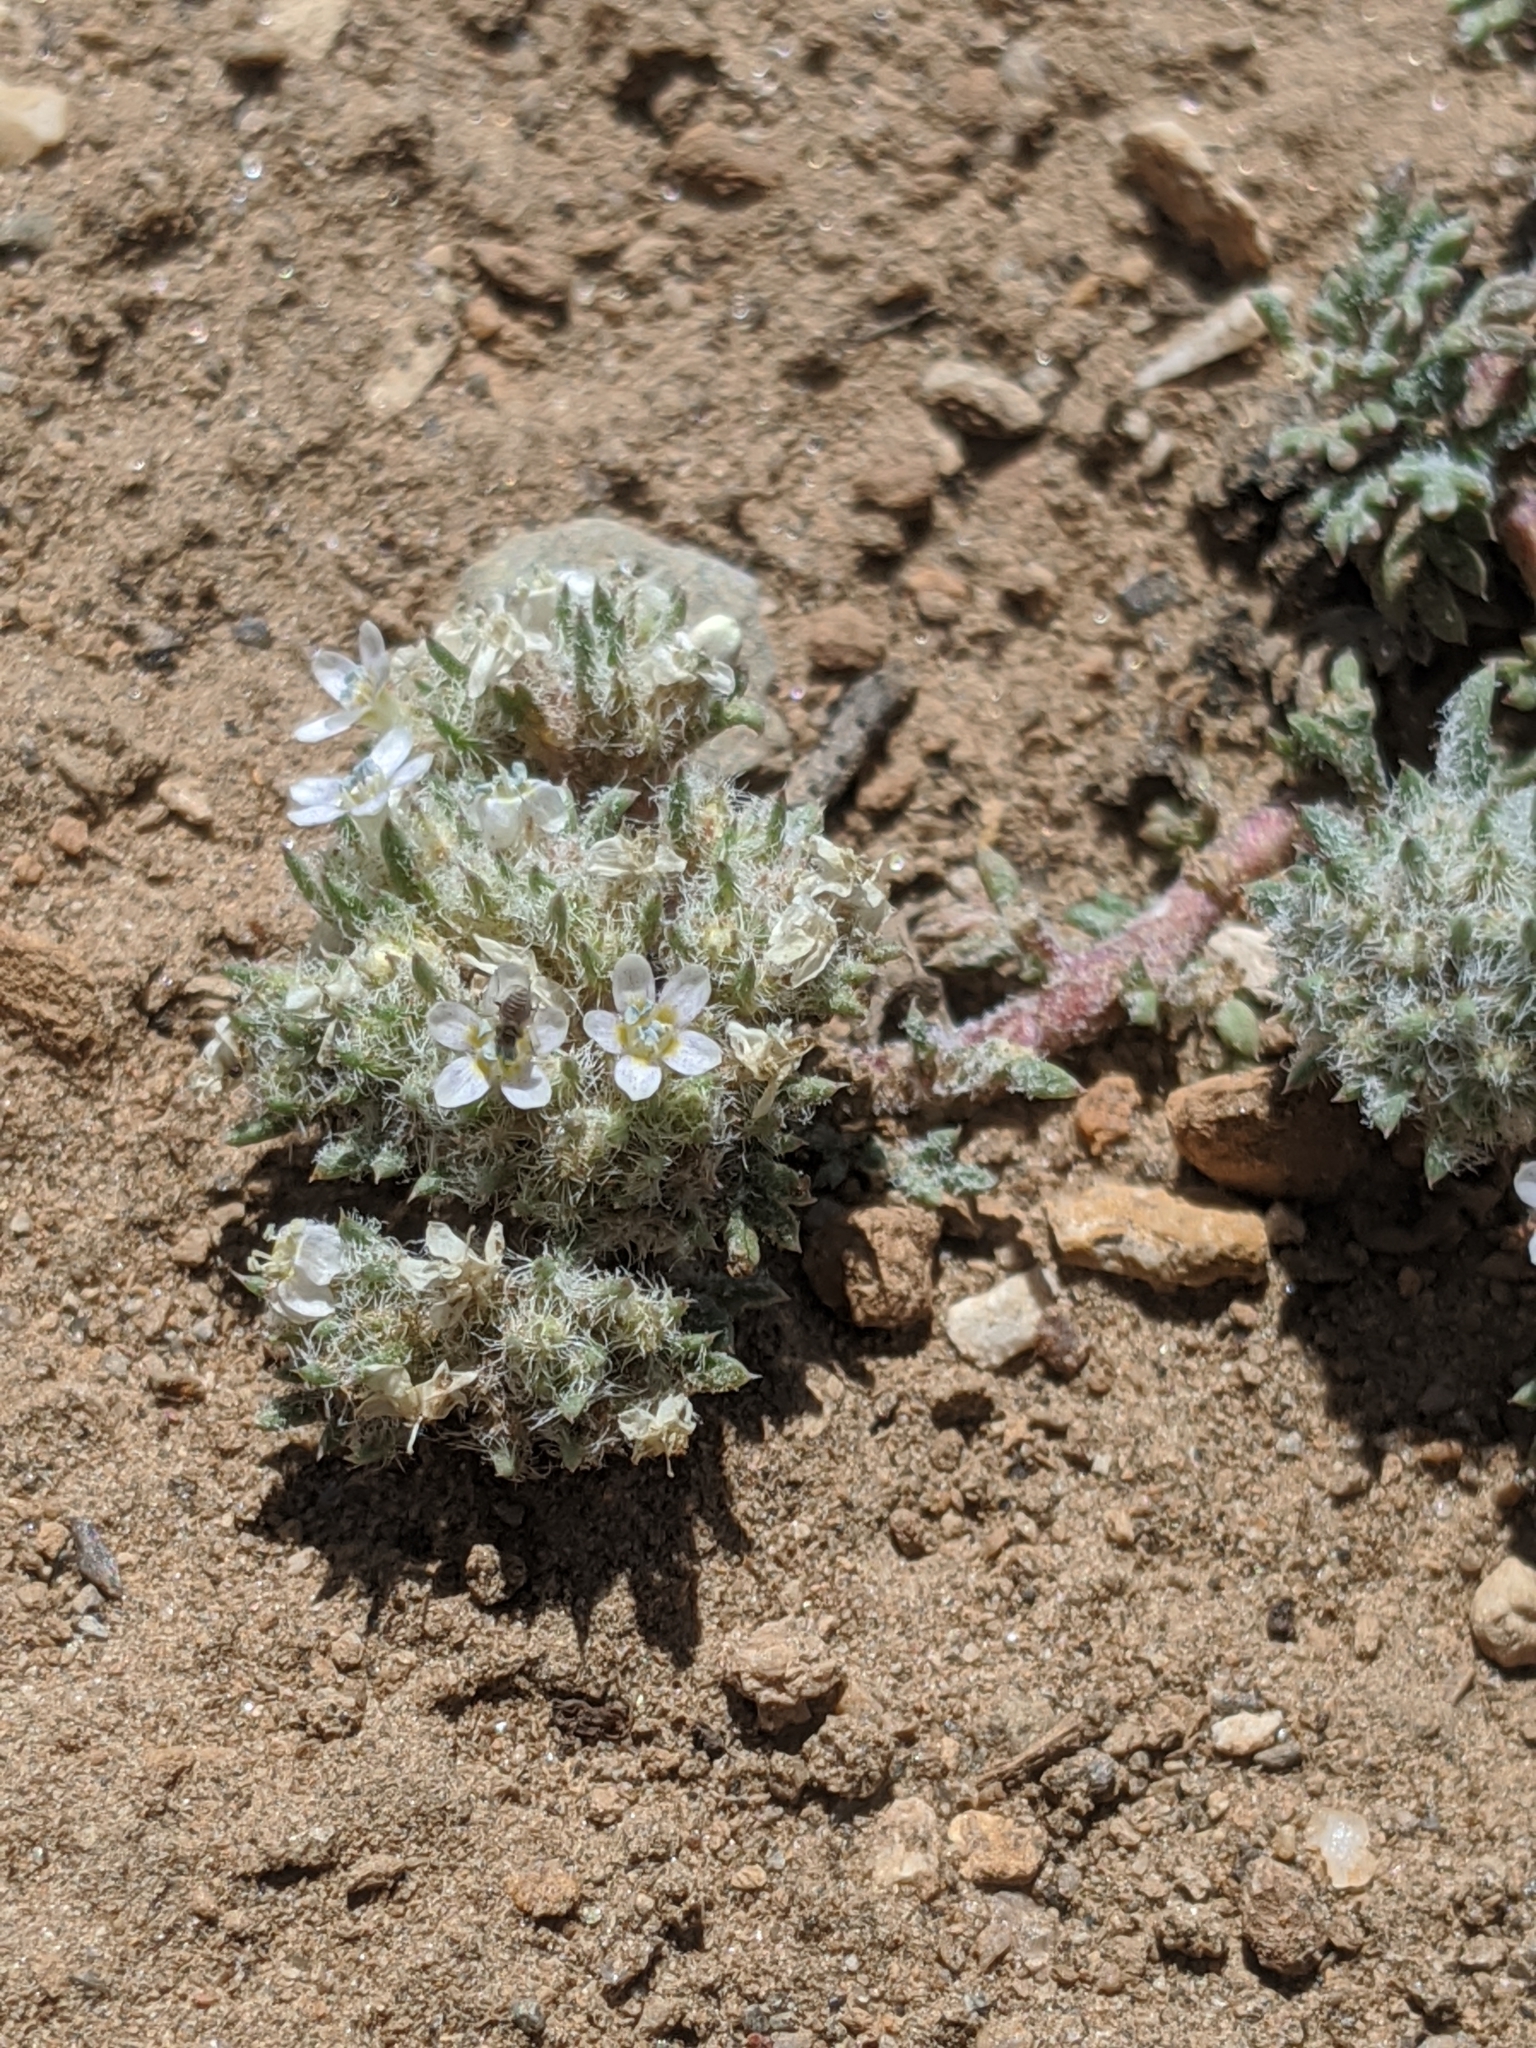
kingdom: Plantae
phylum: Tracheophyta
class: Magnoliopsida
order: Ericales
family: Polemoniaceae
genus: Ipomopsis
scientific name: Ipomopsis congesta
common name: Ball-head gilia
